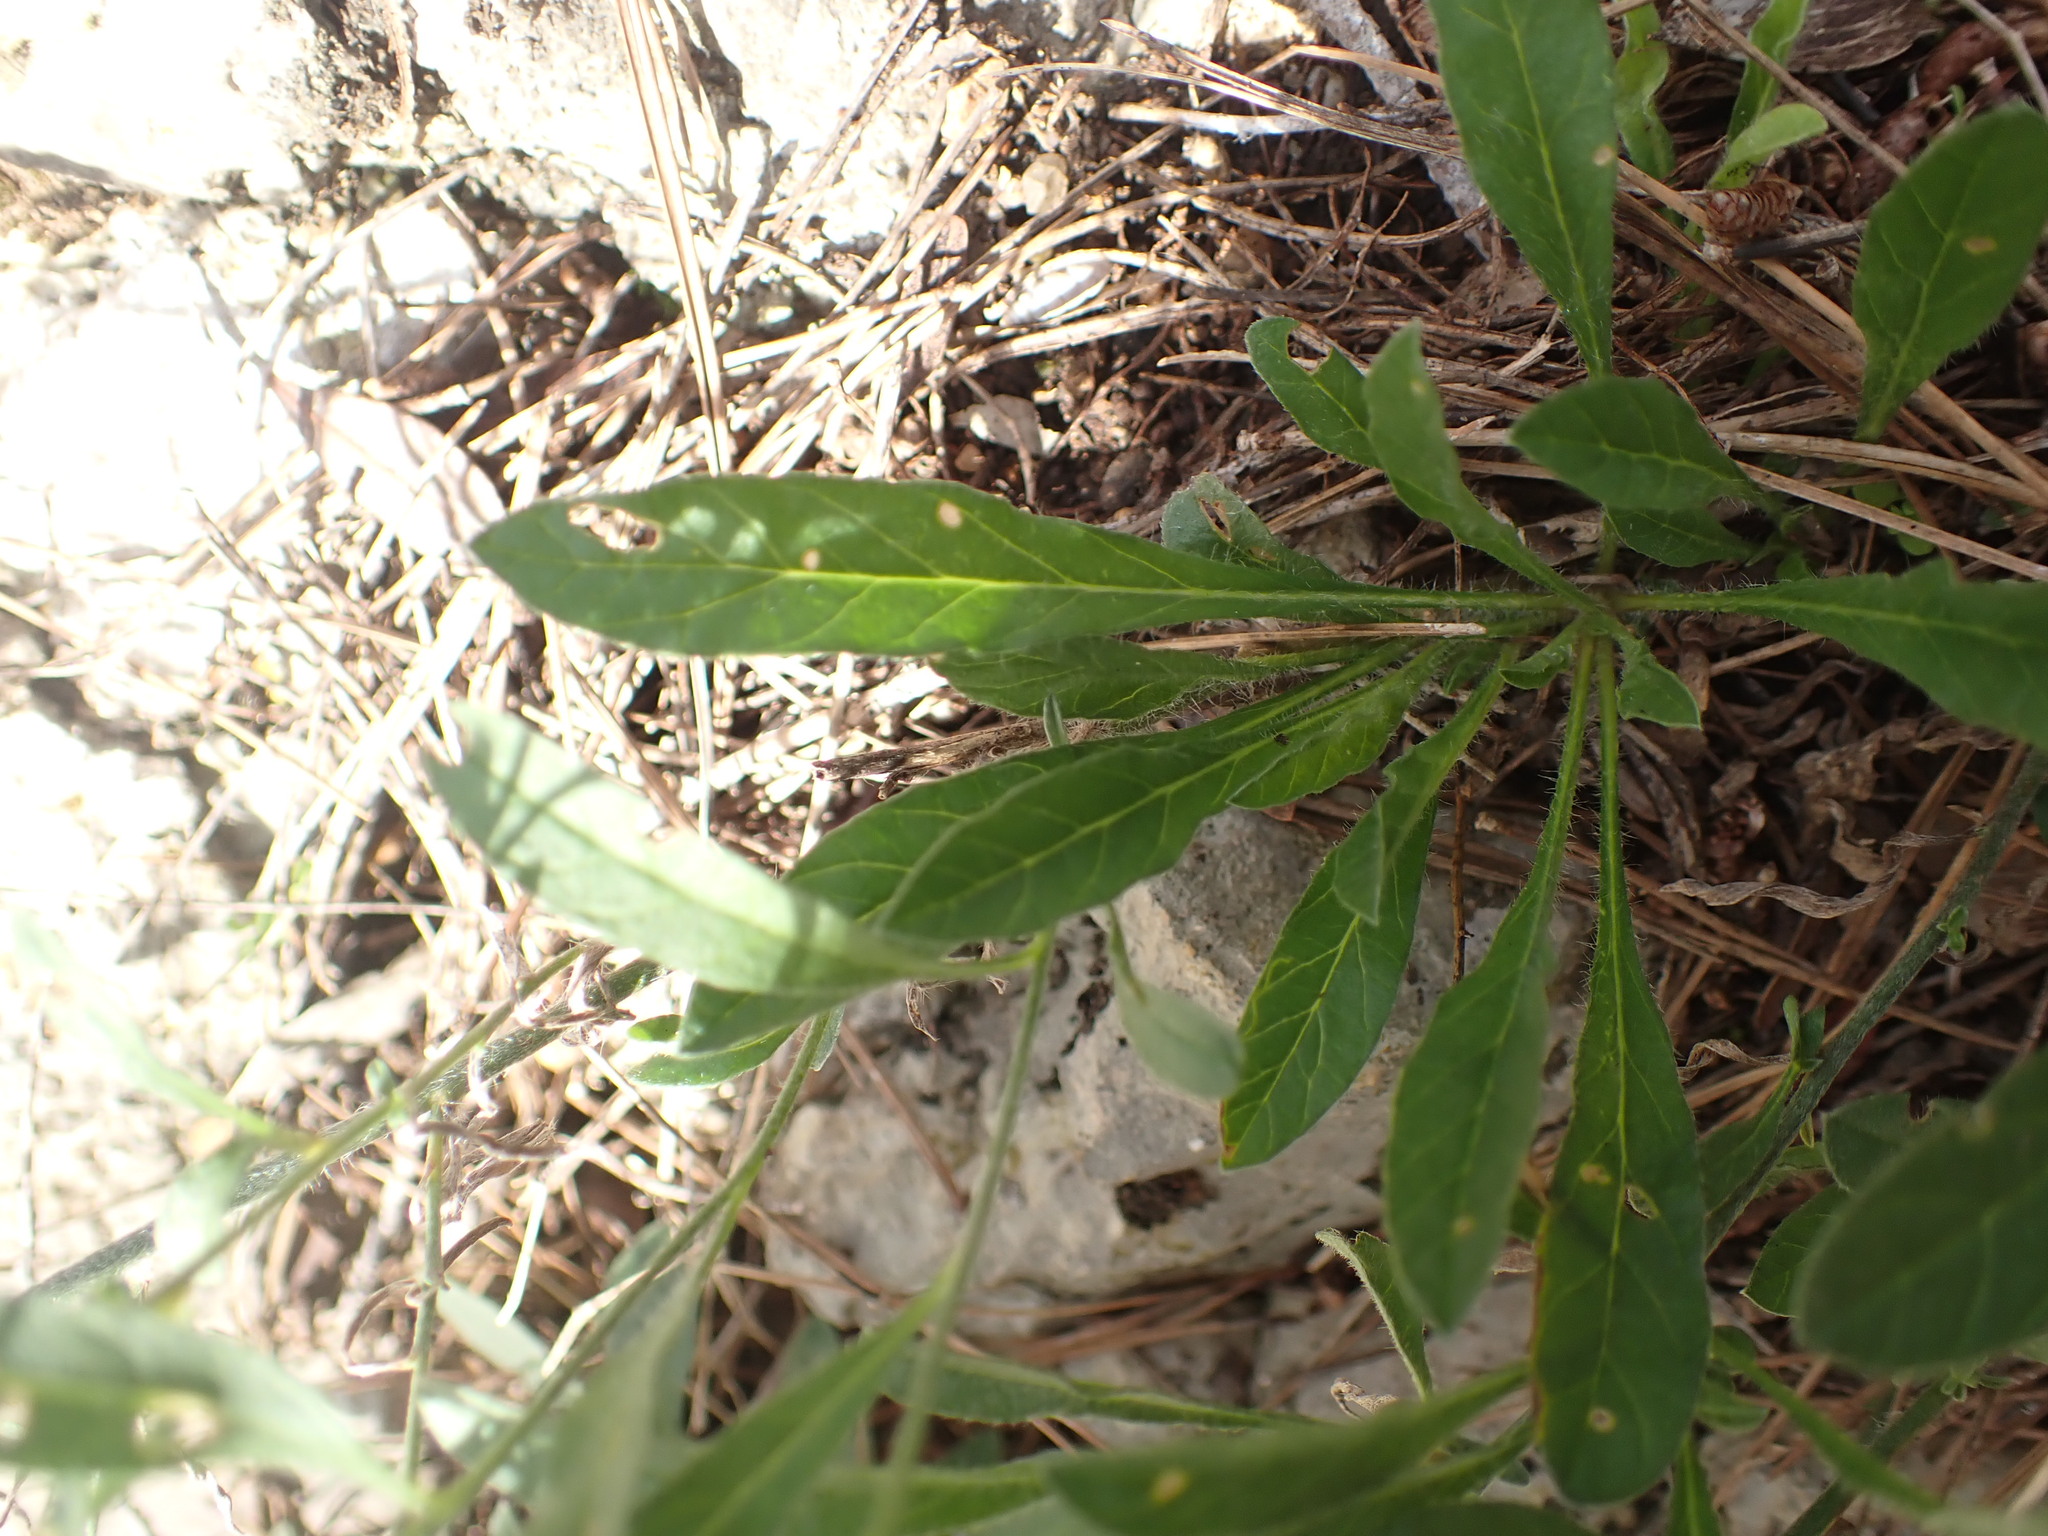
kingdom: Plantae
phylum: Tracheophyta
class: Magnoliopsida
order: Solanales
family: Convolvulaceae
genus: Convolvulus
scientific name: Convolvulus cantabrica
